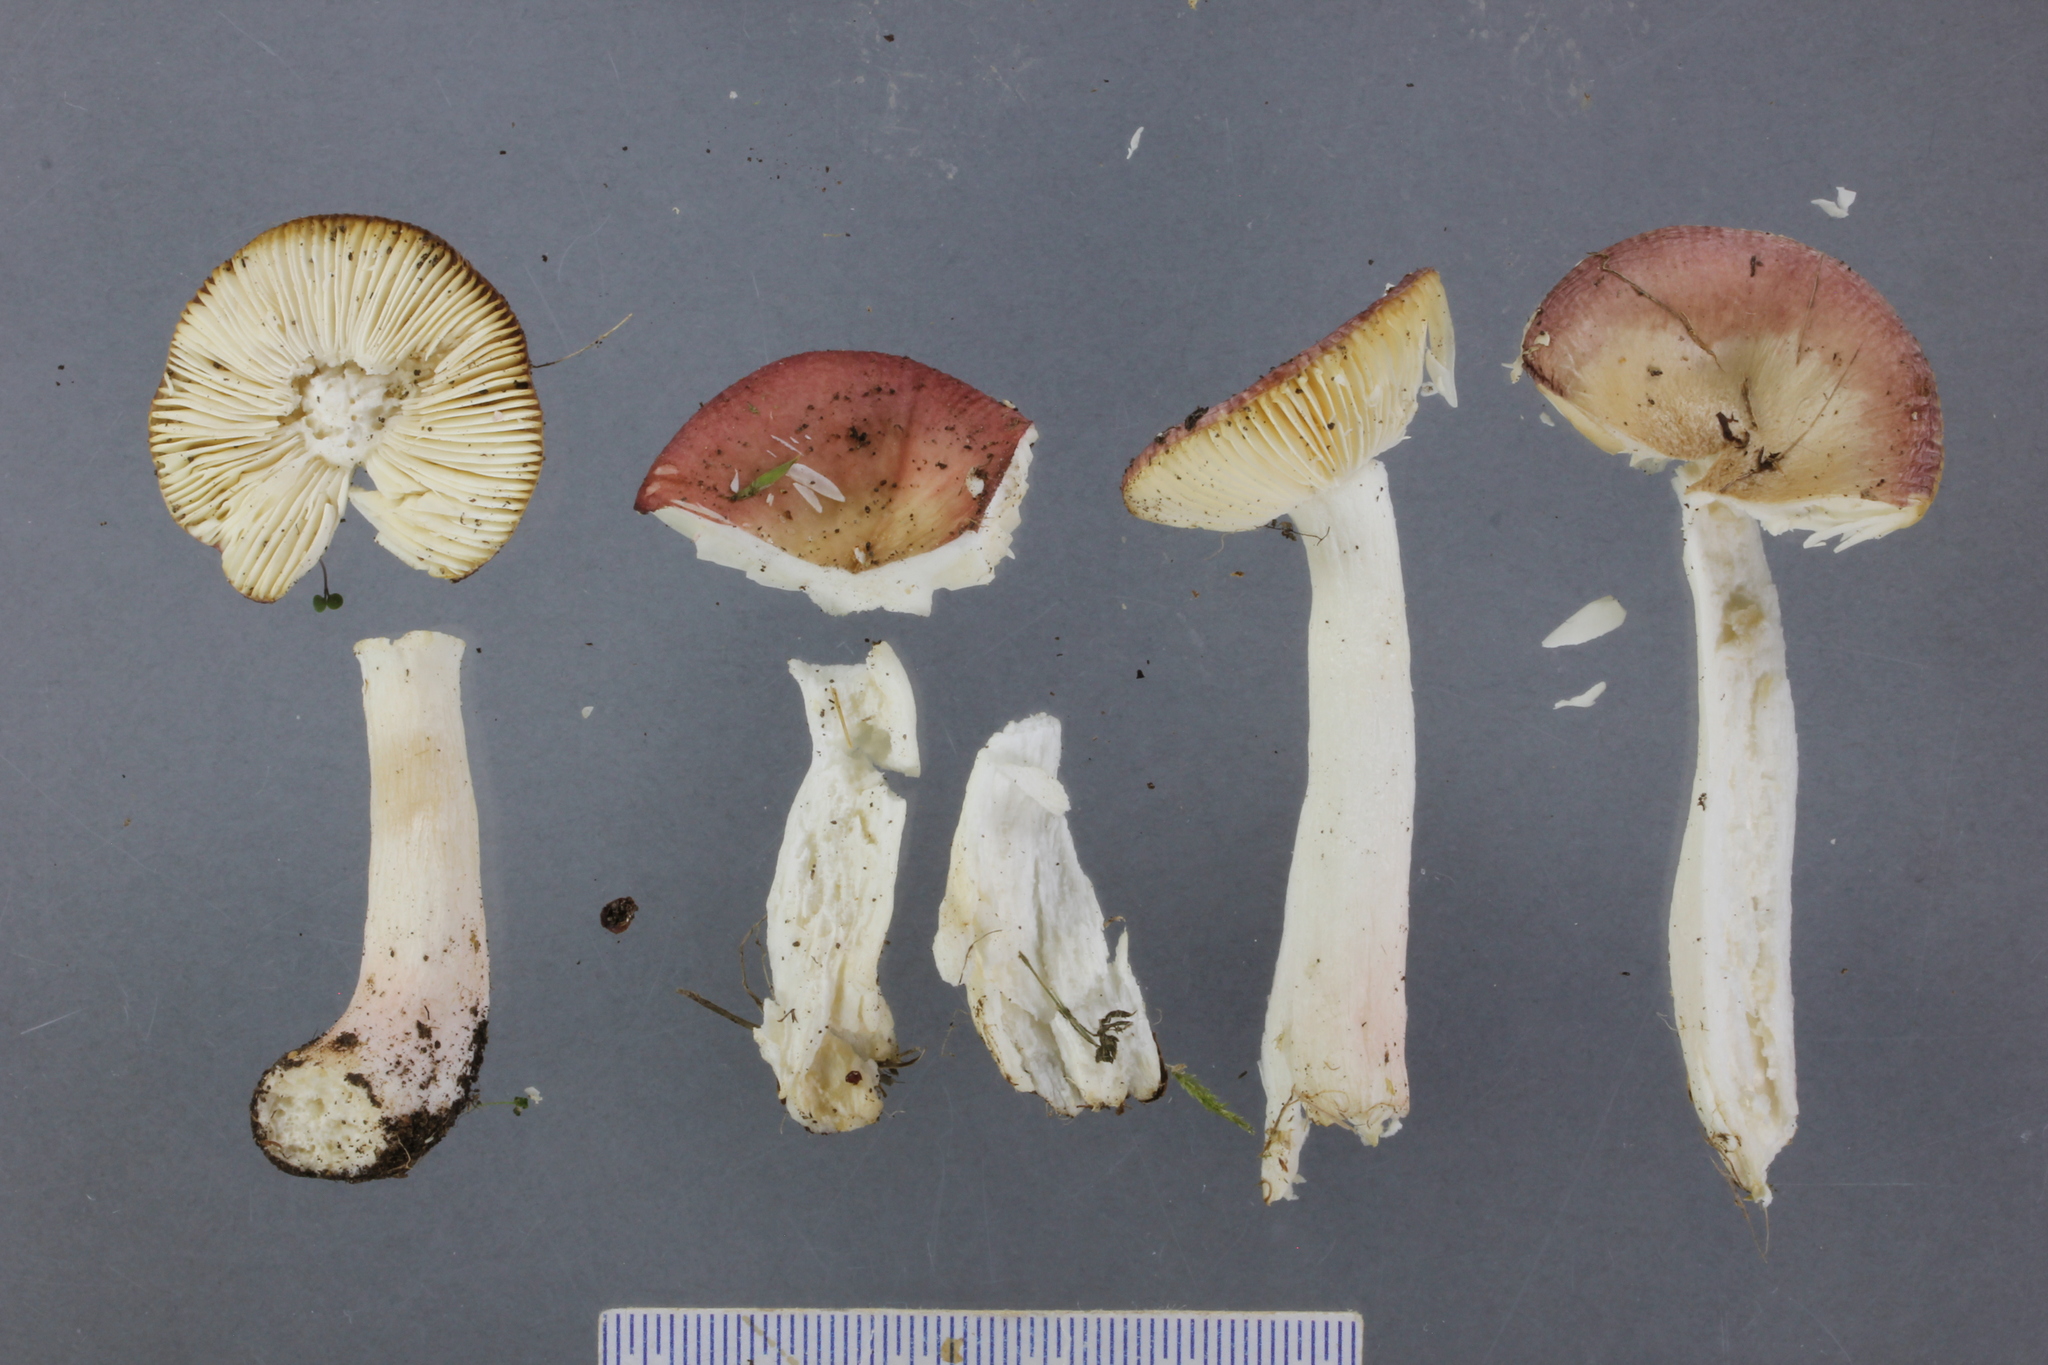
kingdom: Fungi
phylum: Basidiomycota
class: Agaricomycetes
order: Russulales
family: Russulaceae
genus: Russula
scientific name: Russula nitida
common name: Purple swamp brittlegill
